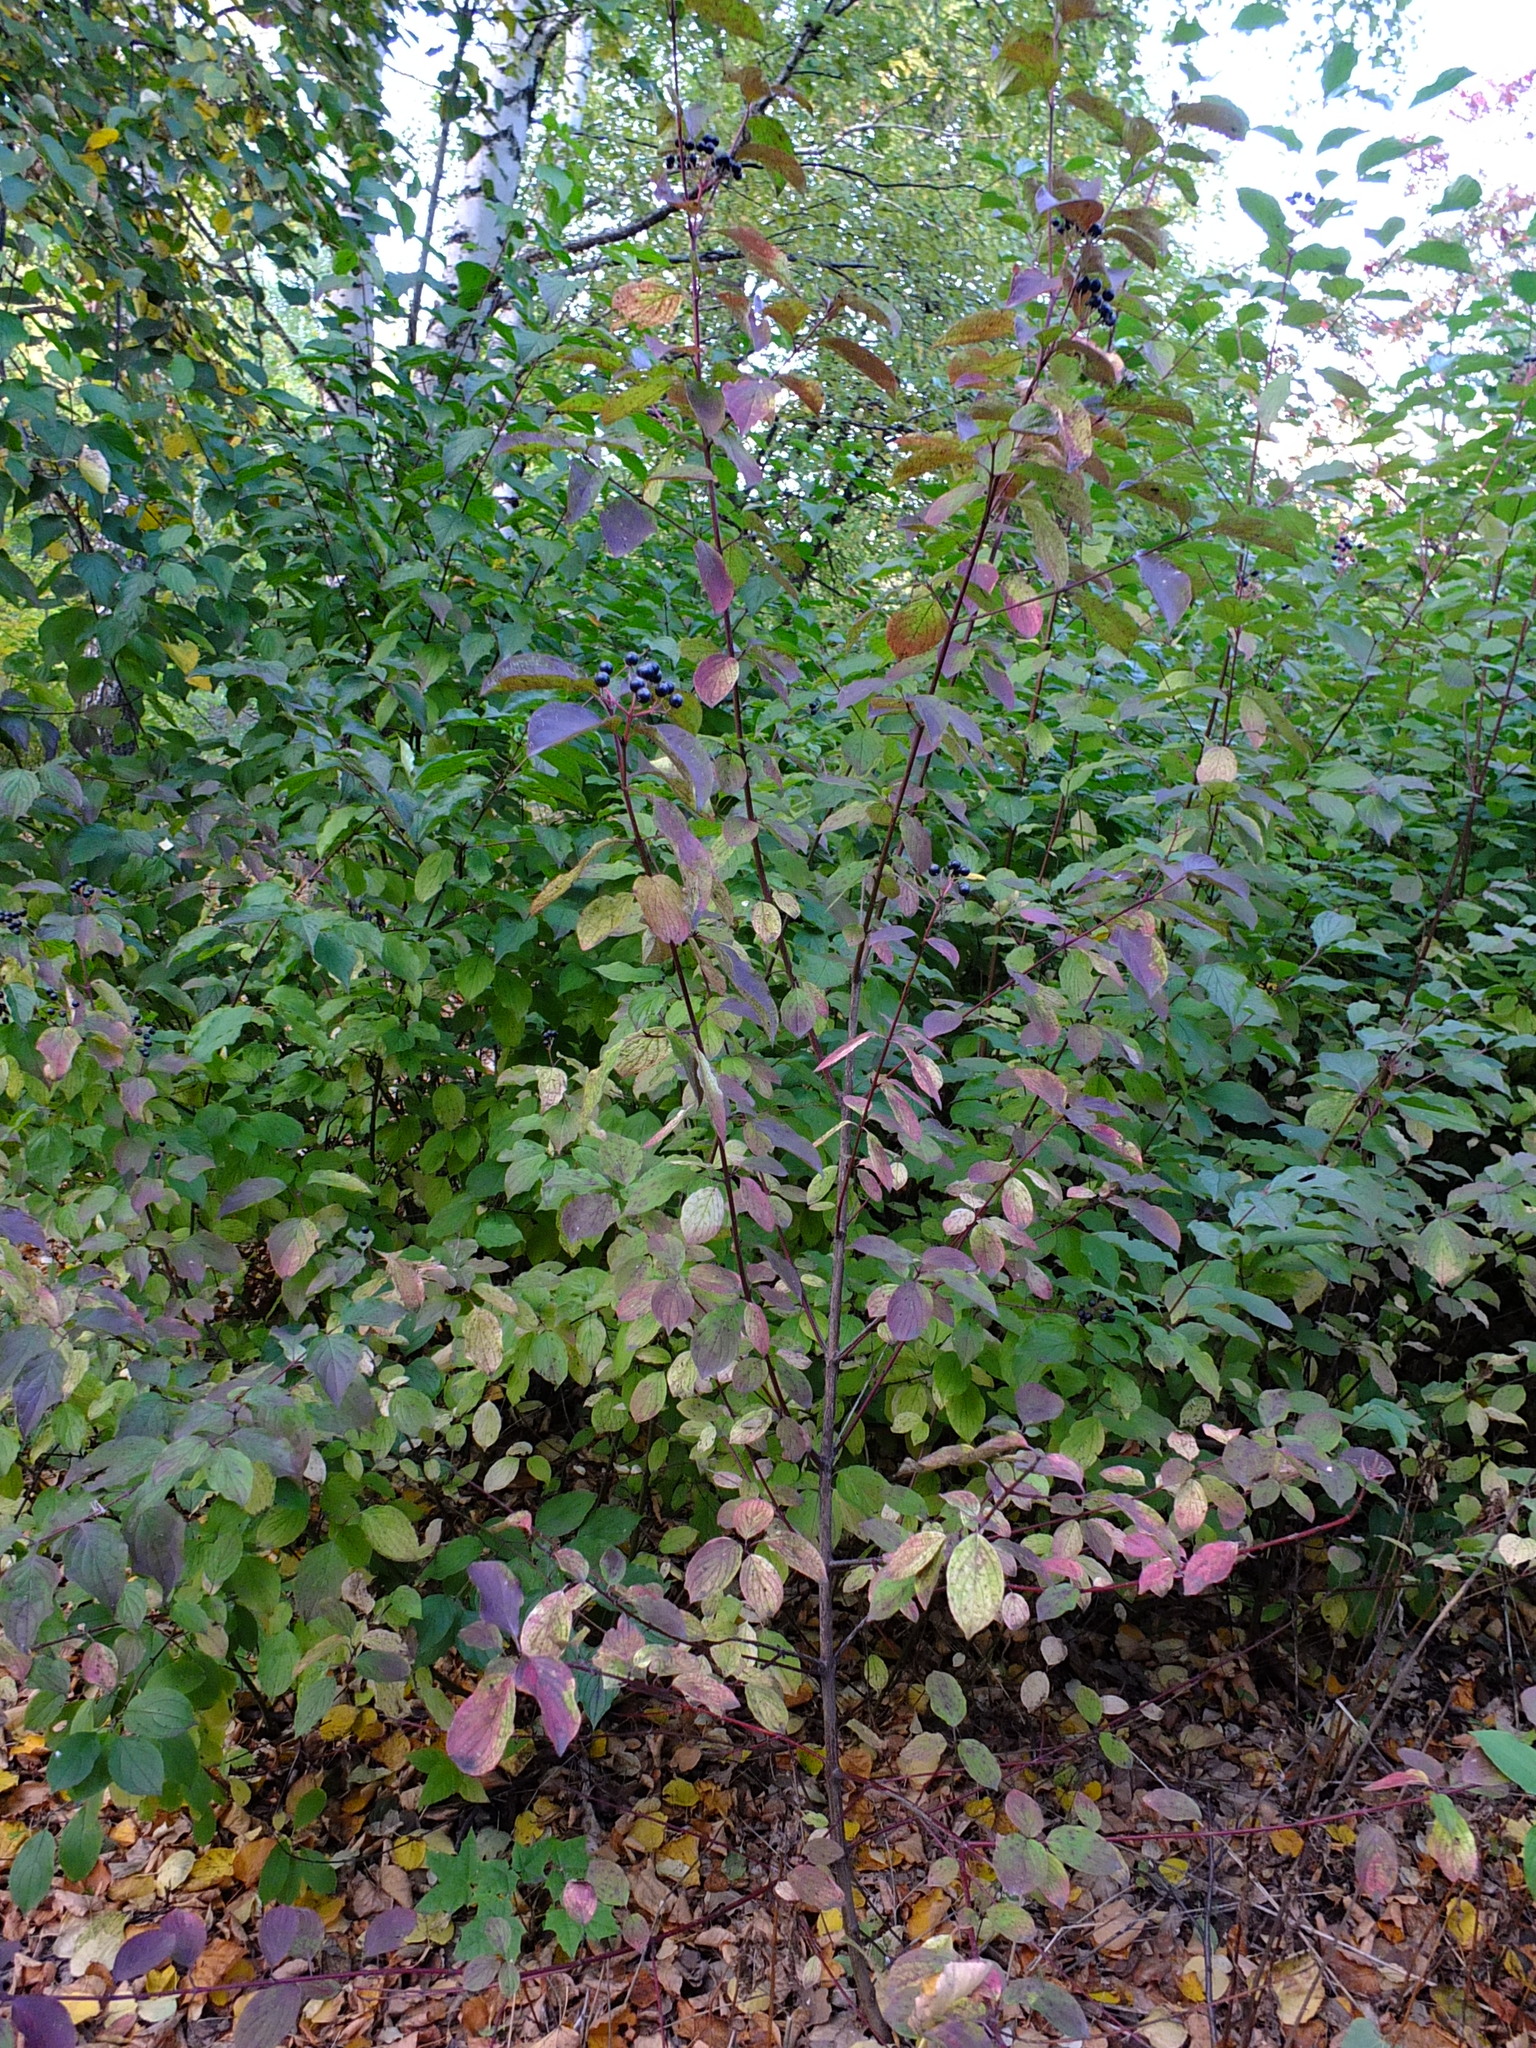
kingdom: Plantae
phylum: Tracheophyta
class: Magnoliopsida
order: Cornales
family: Cornaceae
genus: Cornus
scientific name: Cornus sanguinea
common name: Dogwood
